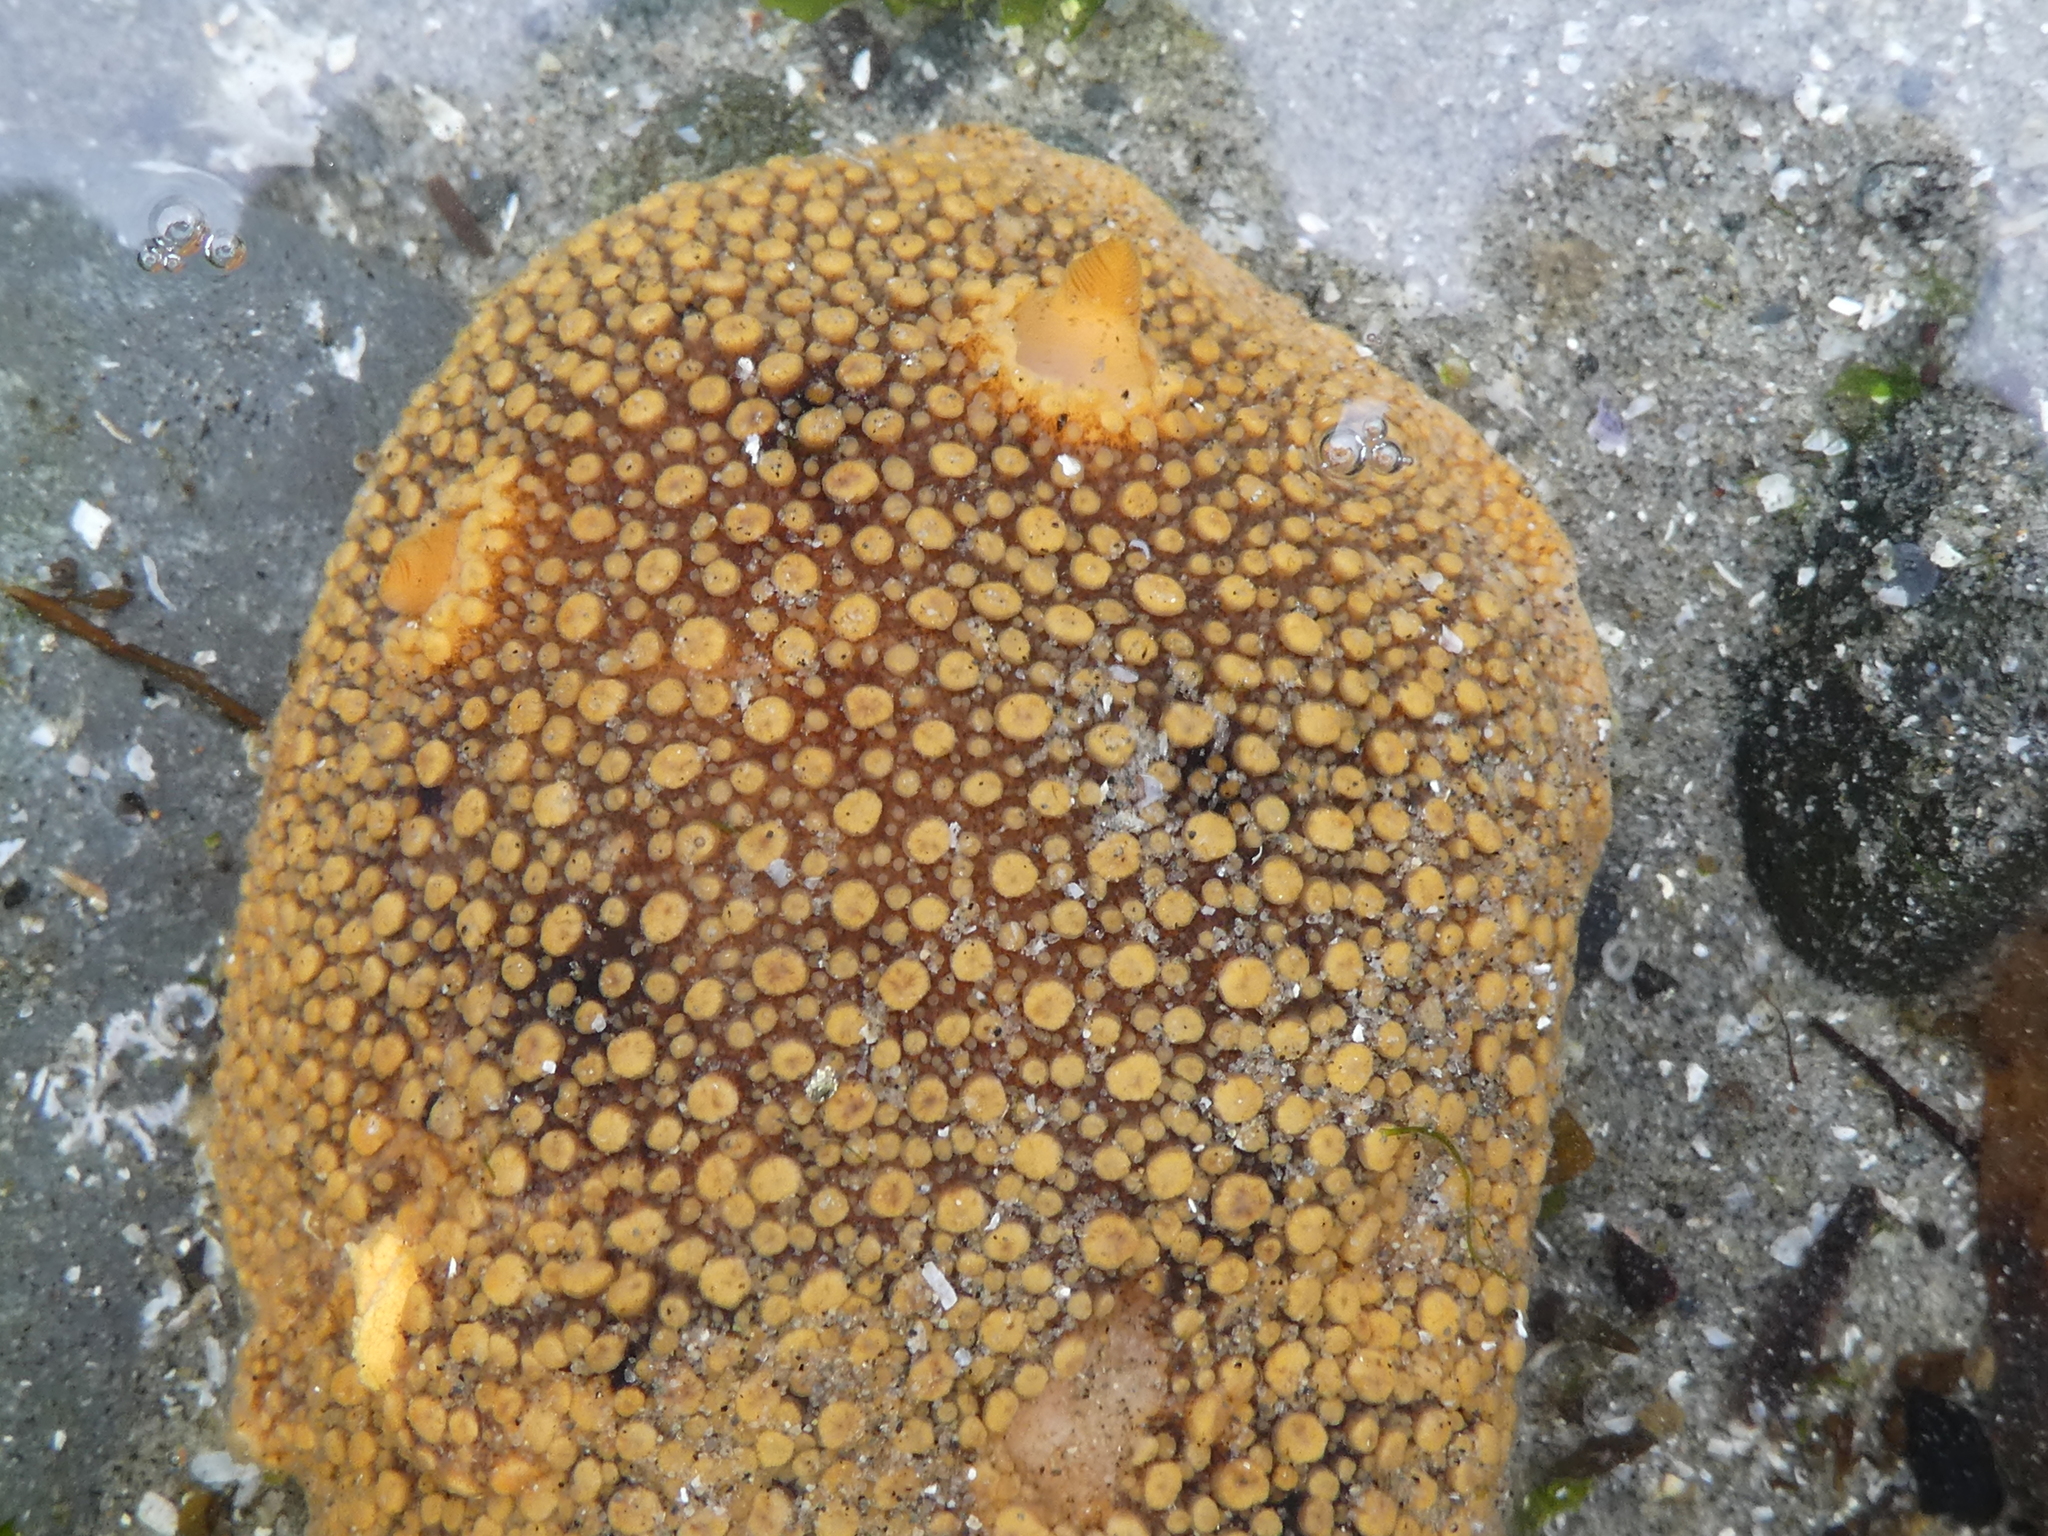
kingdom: Animalia
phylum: Mollusca
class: Gastropoda
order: Nudibranchia
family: Discodorididae
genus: Peltodoris
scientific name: Peltodoris nobilis
